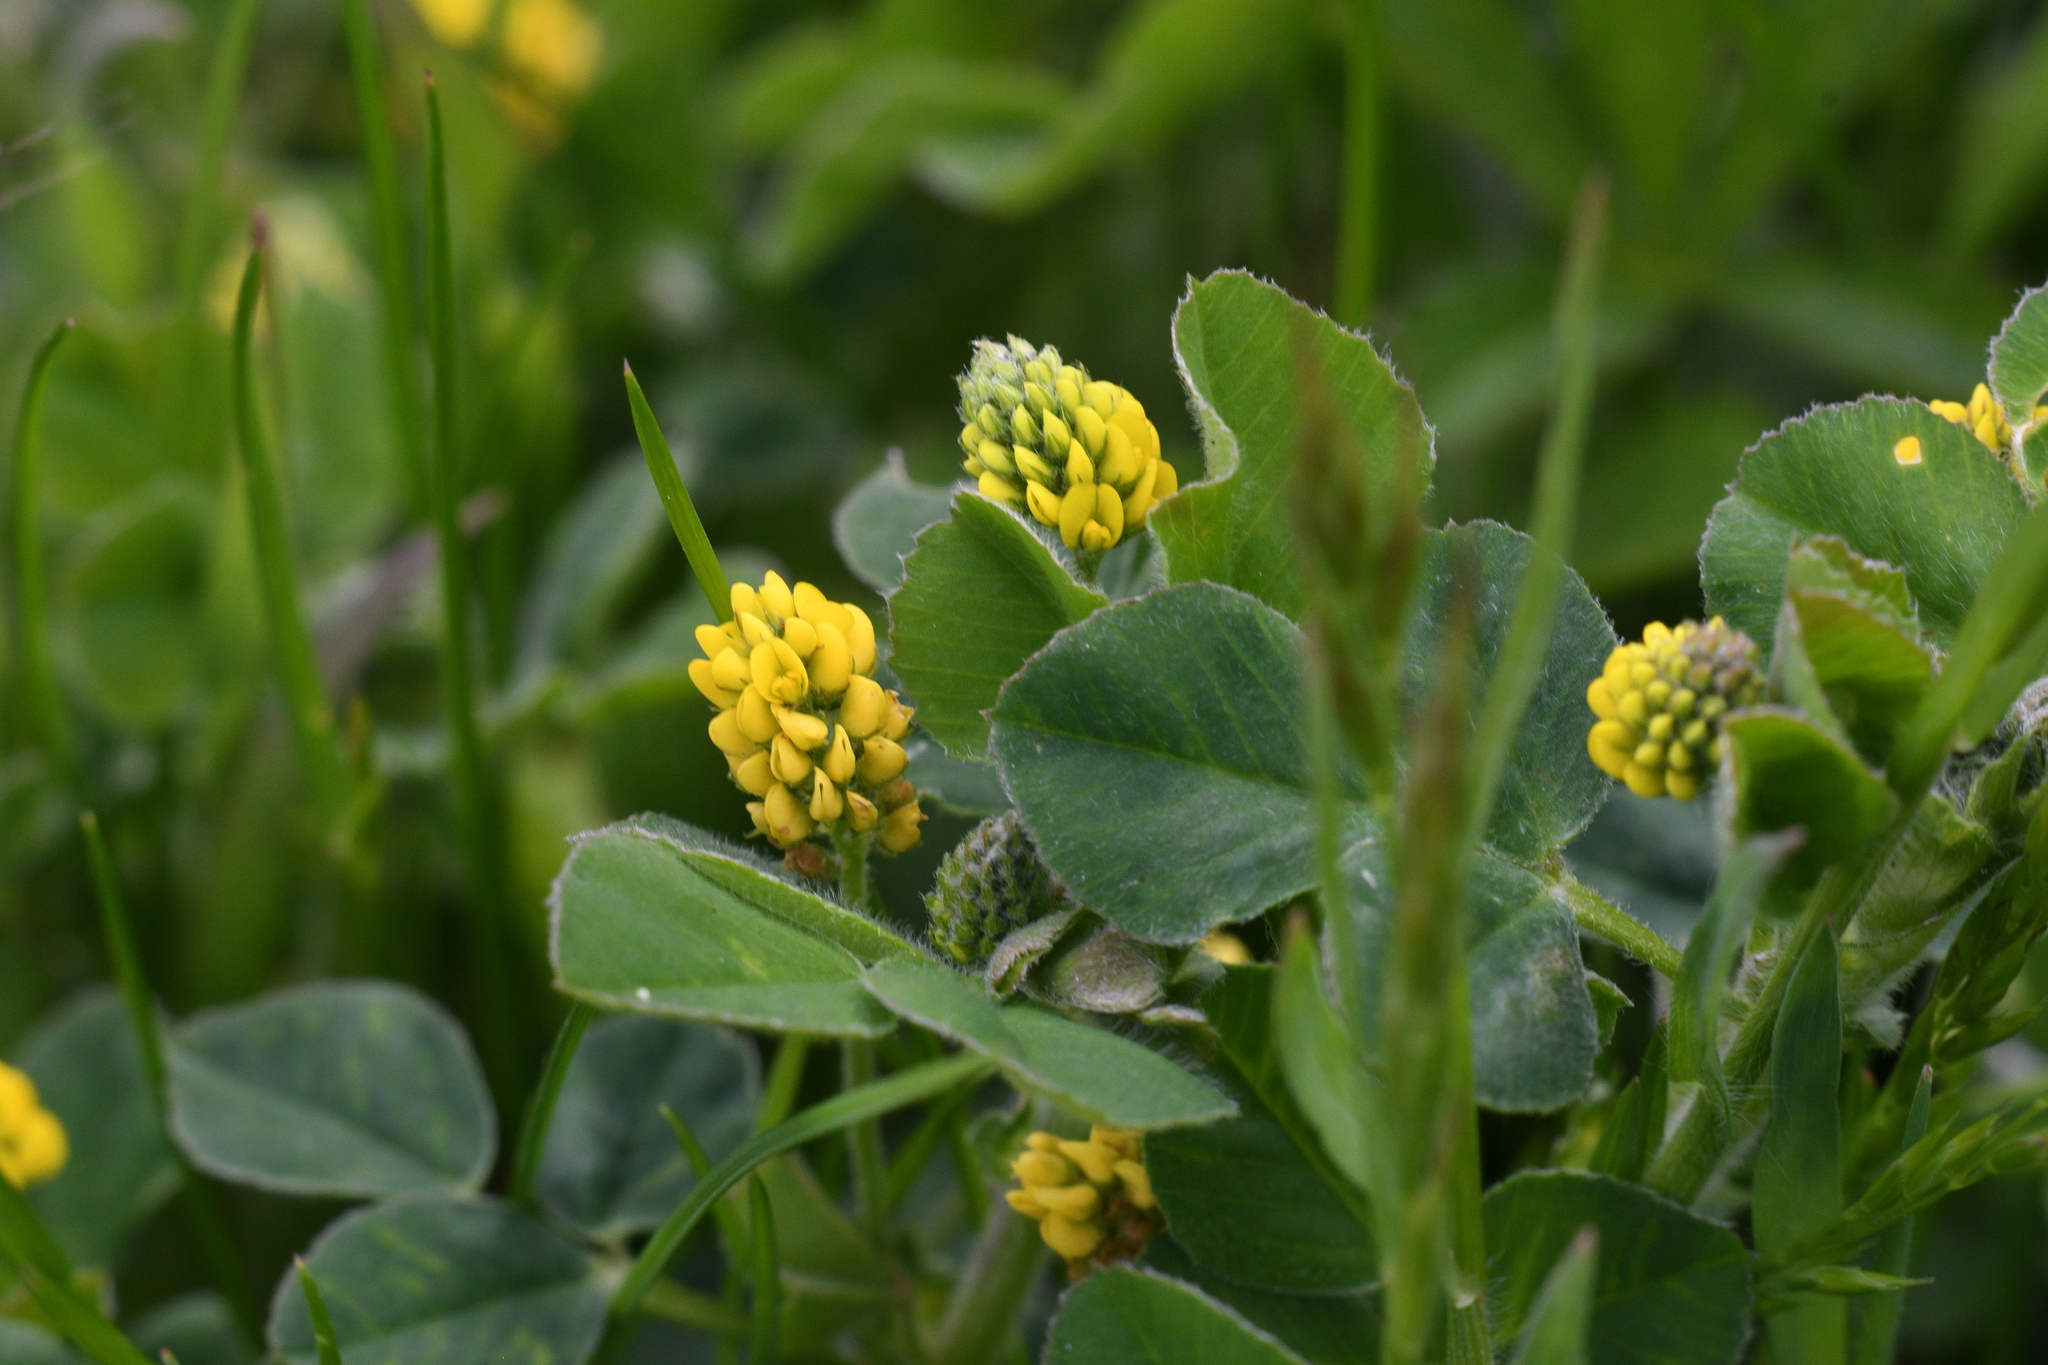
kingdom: Plantae
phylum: Tracheophyta
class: Magnoliopsida
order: Fabales
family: Fabaceae
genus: Medicago
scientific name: Medicago lupulina
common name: Black medick
